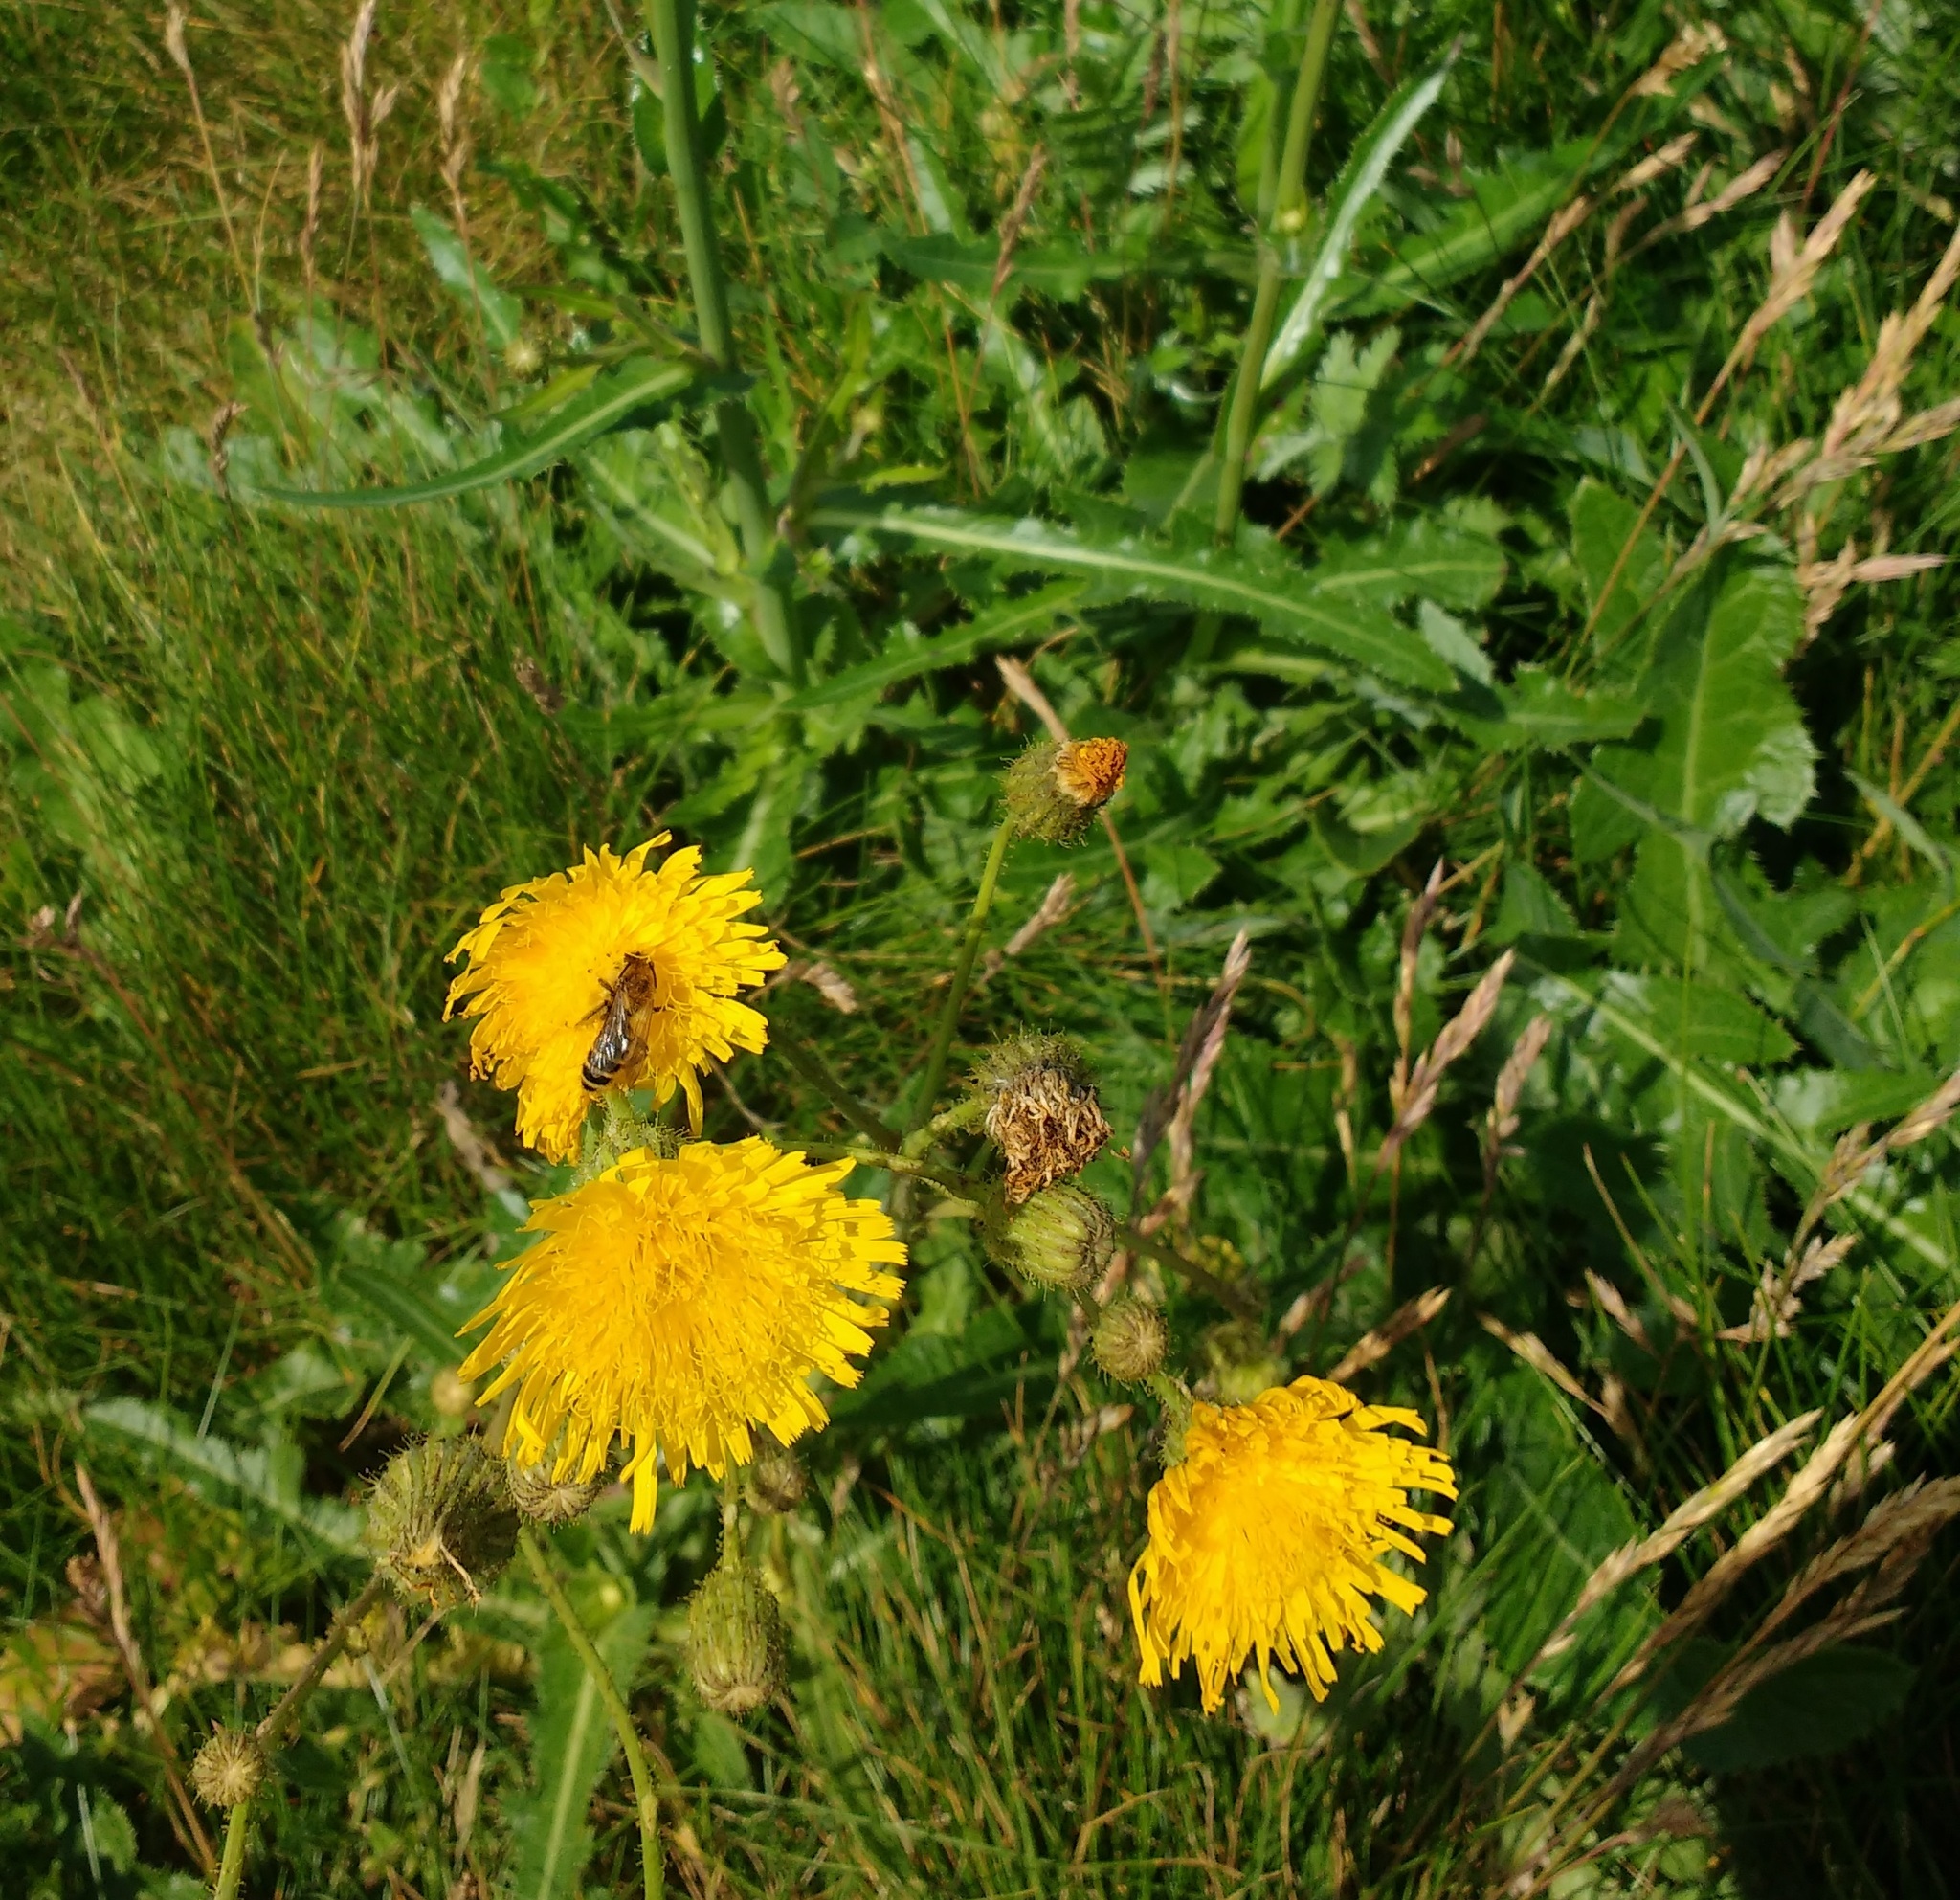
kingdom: Plantae
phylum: Tracheophyta
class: Magnoliopsida
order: Asterales
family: Asteraceae
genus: Sonchus
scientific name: Sonchus arvensis
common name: Perennial sow-thistle
